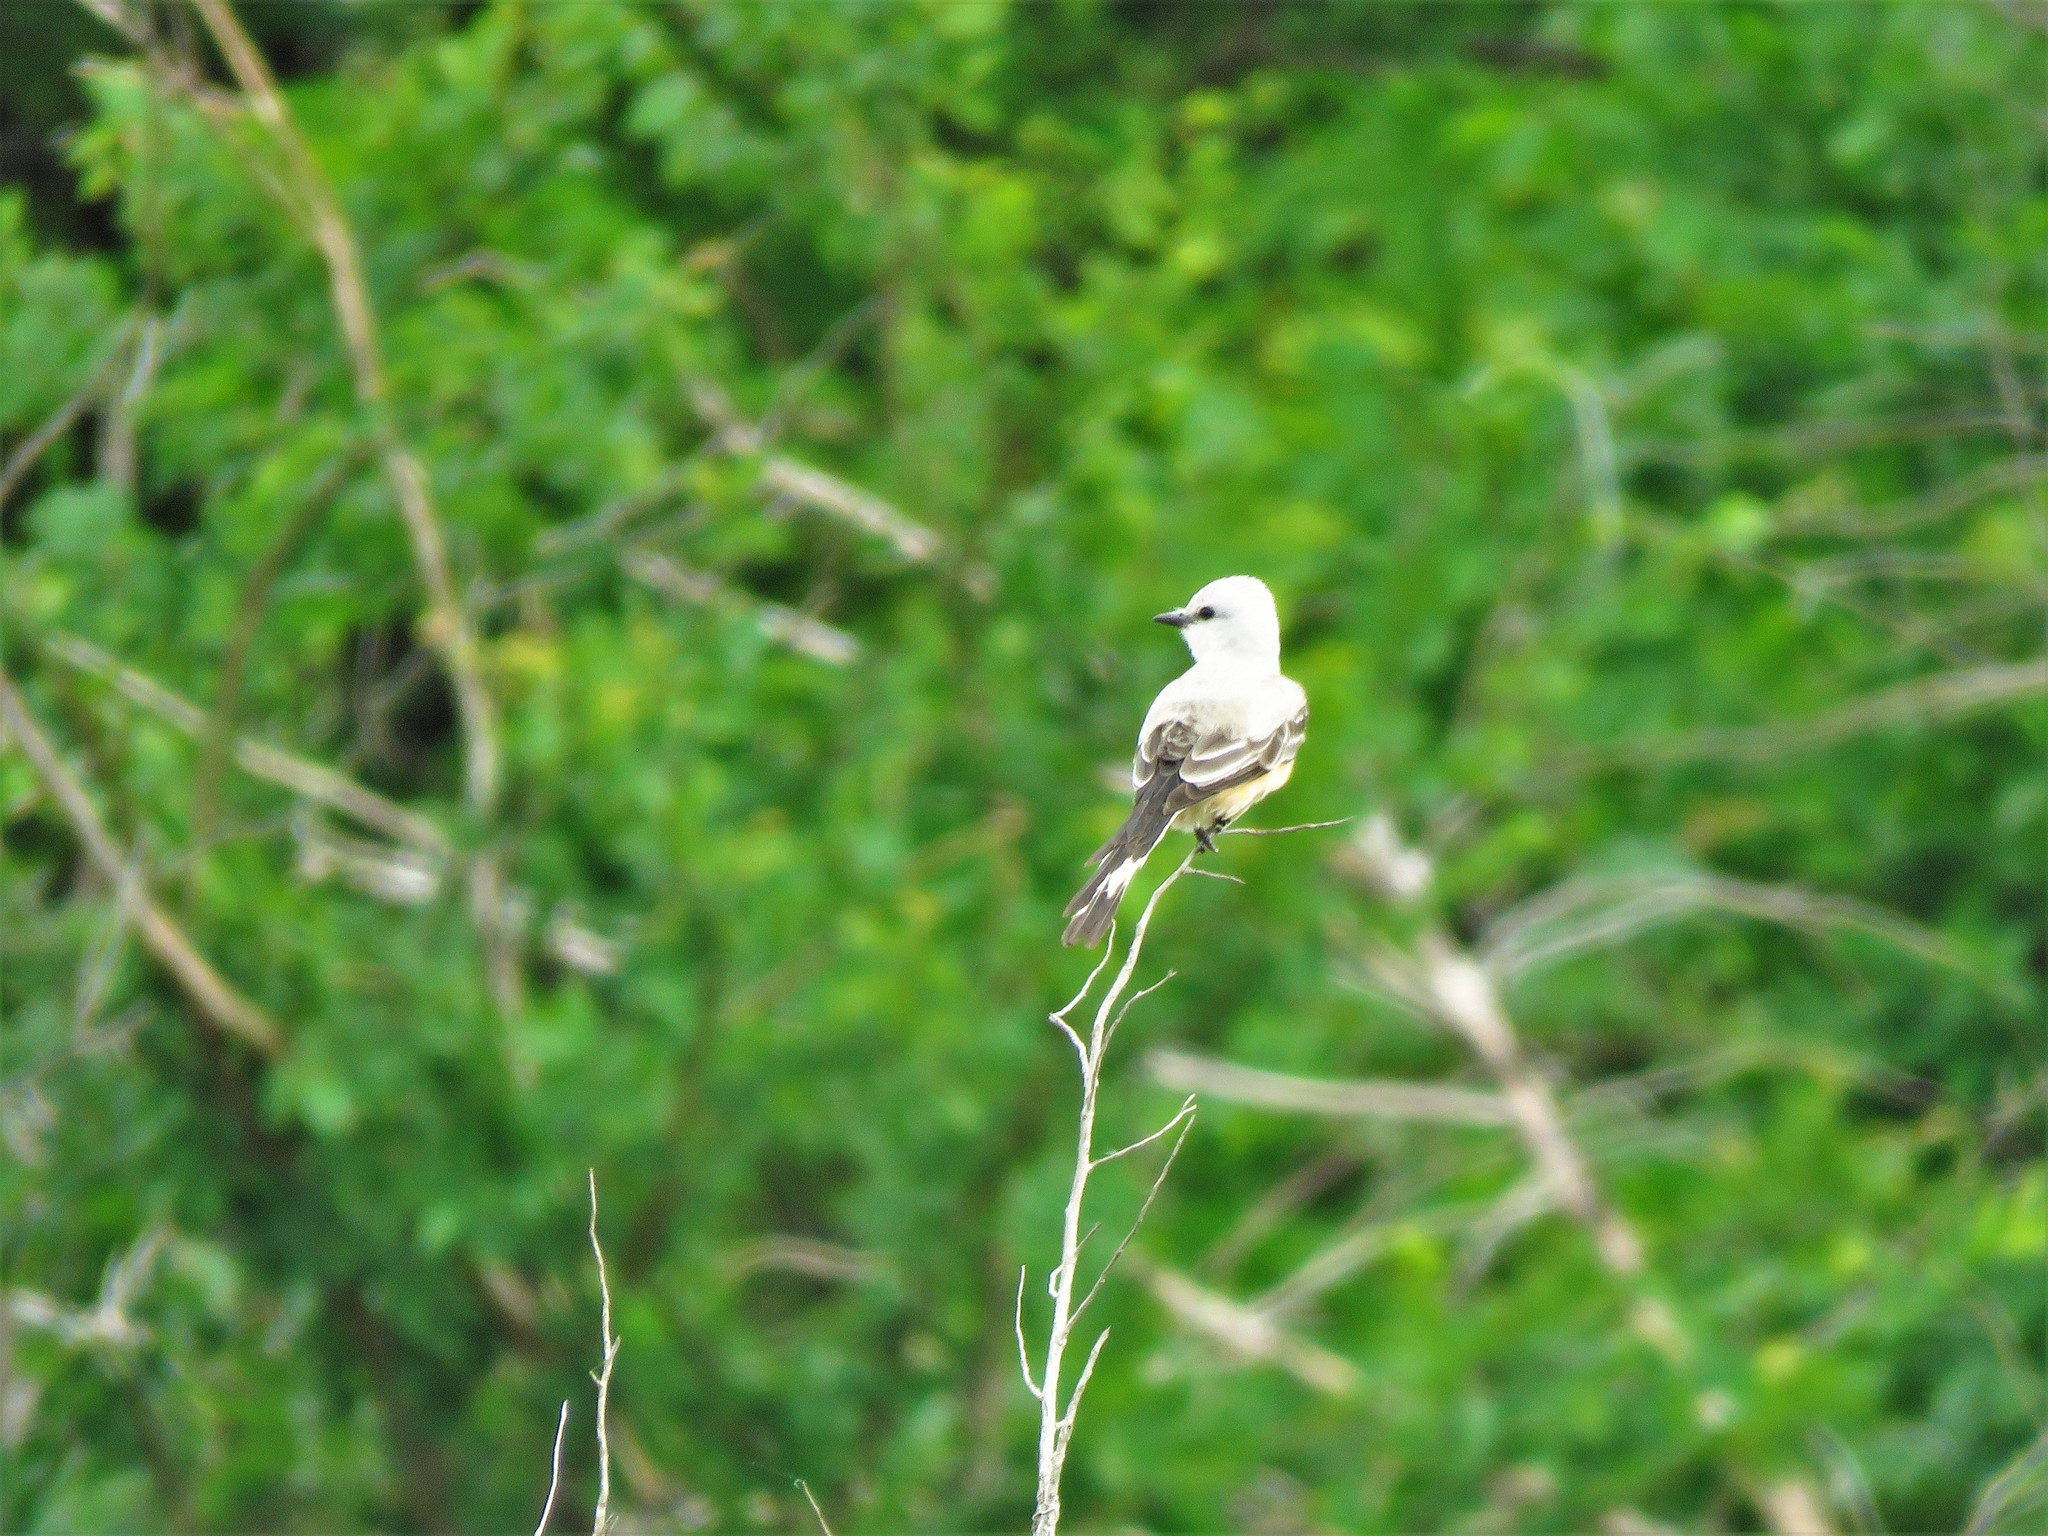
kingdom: Animalia
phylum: Chordata
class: Aves
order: Passeriformes
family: Tyrannidae
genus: Tyrannus
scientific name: Tyrannus forficatus
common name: Scissor-tailed flycatcher
